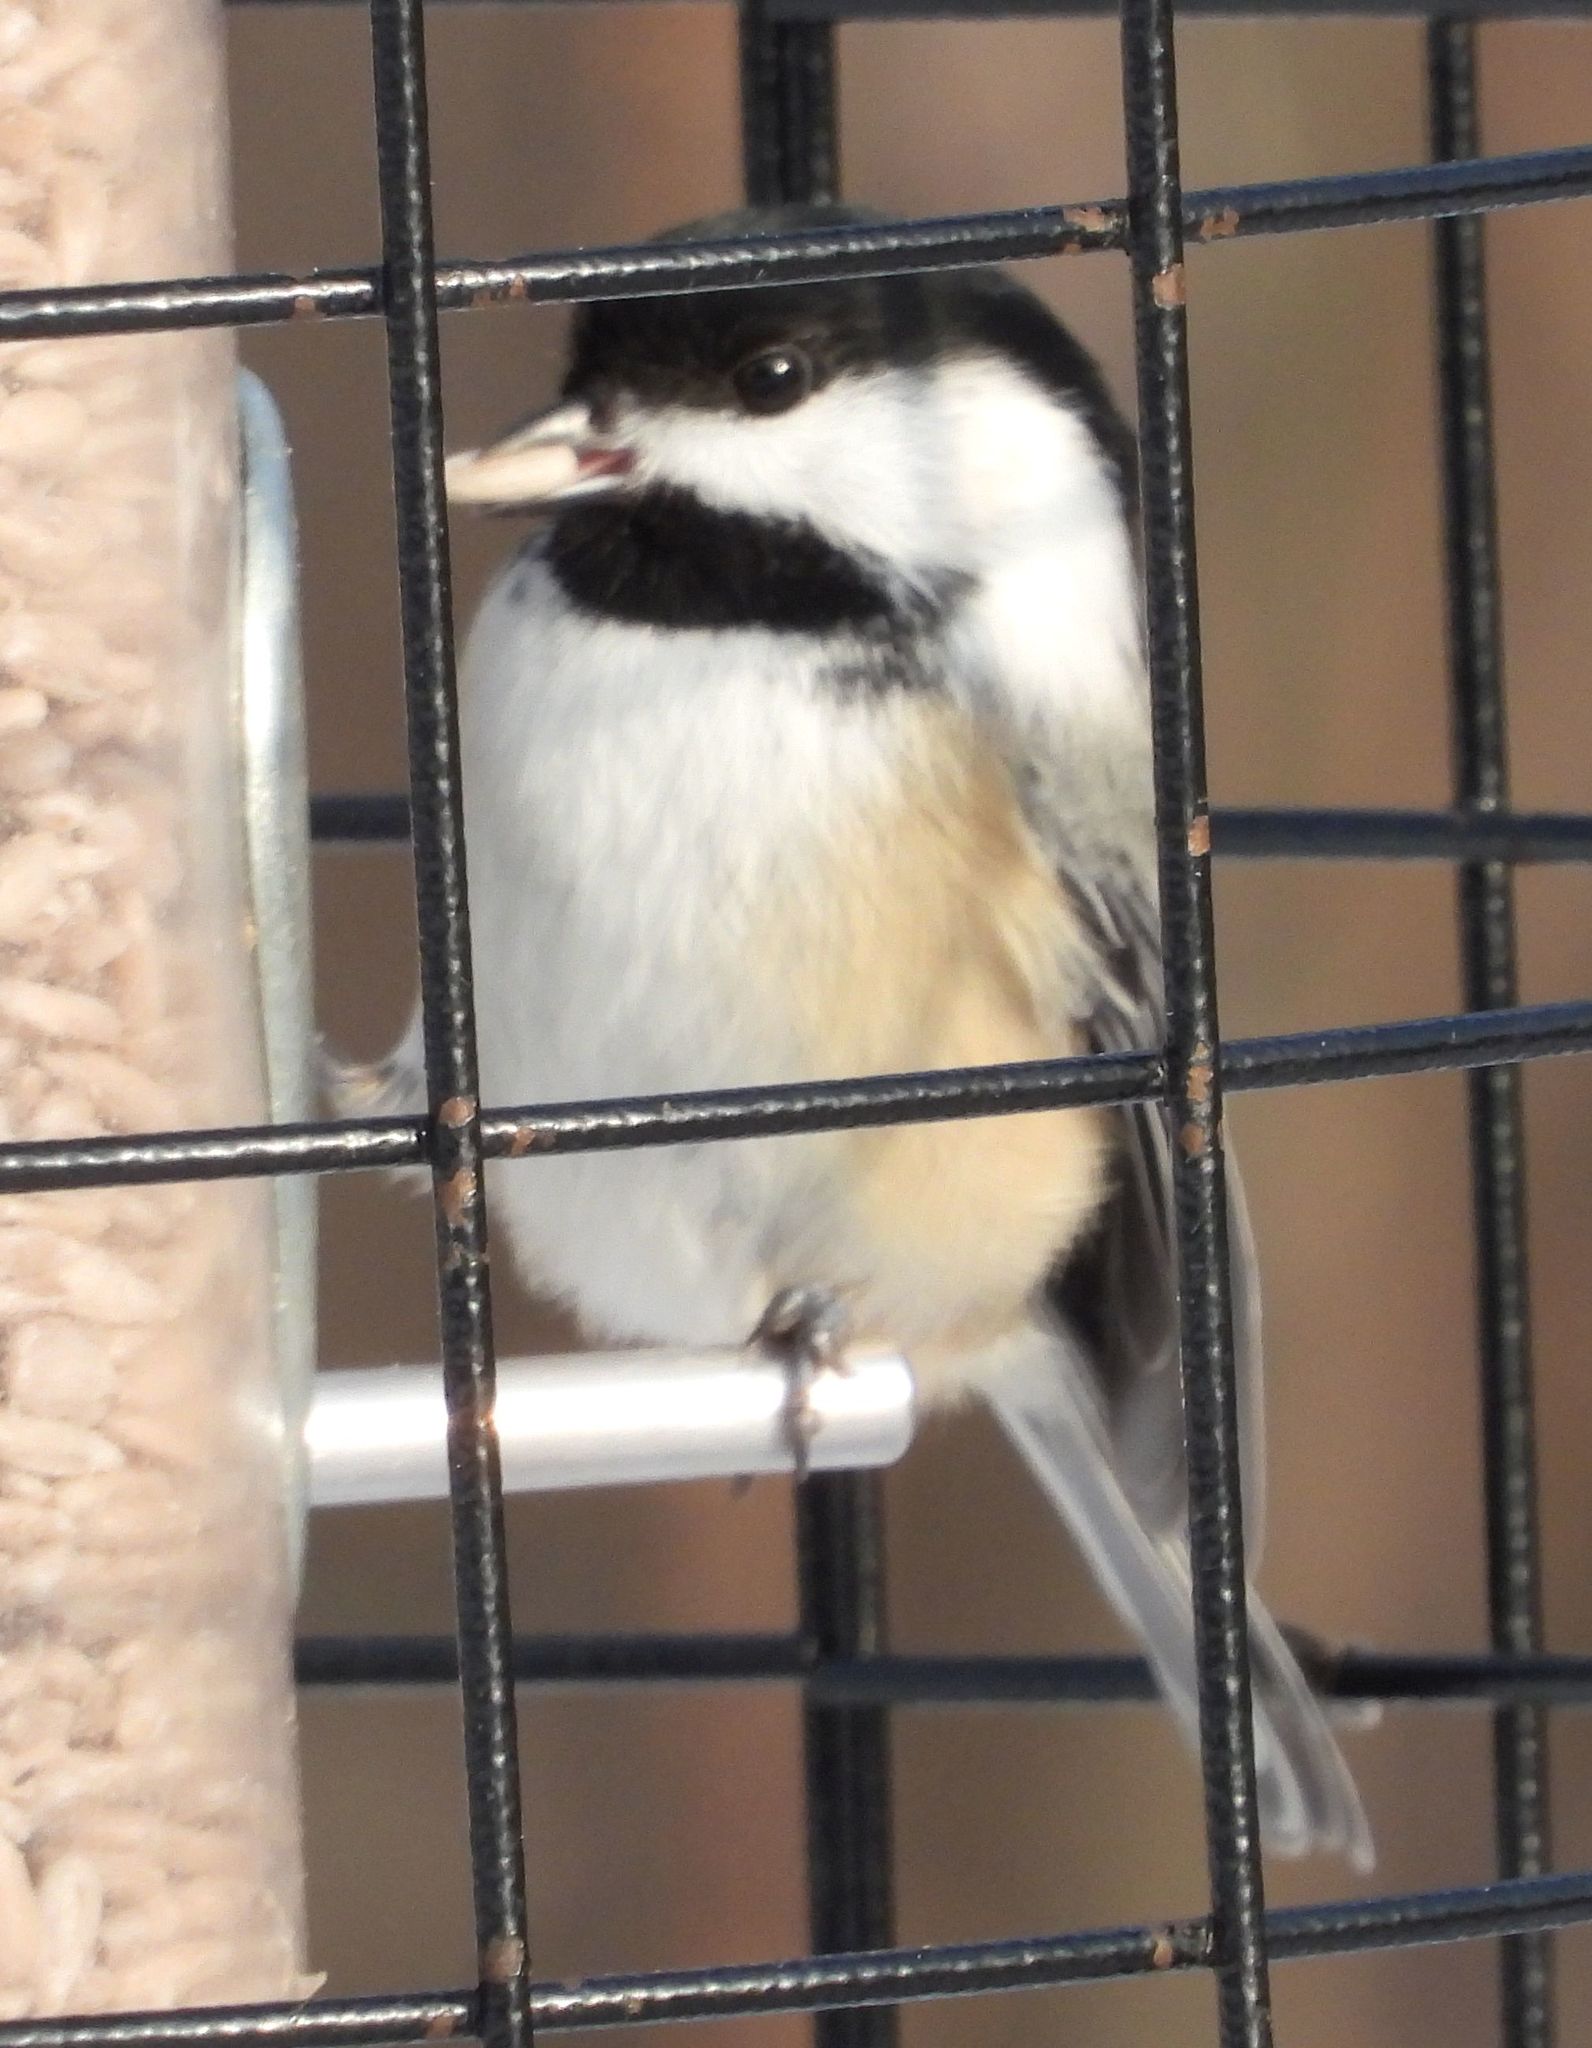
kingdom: Animalia
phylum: Chordata
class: Aves
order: Passeriformes
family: Paridae
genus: Poecile
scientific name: Poecile atricapillus
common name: Black-capped chickadee
